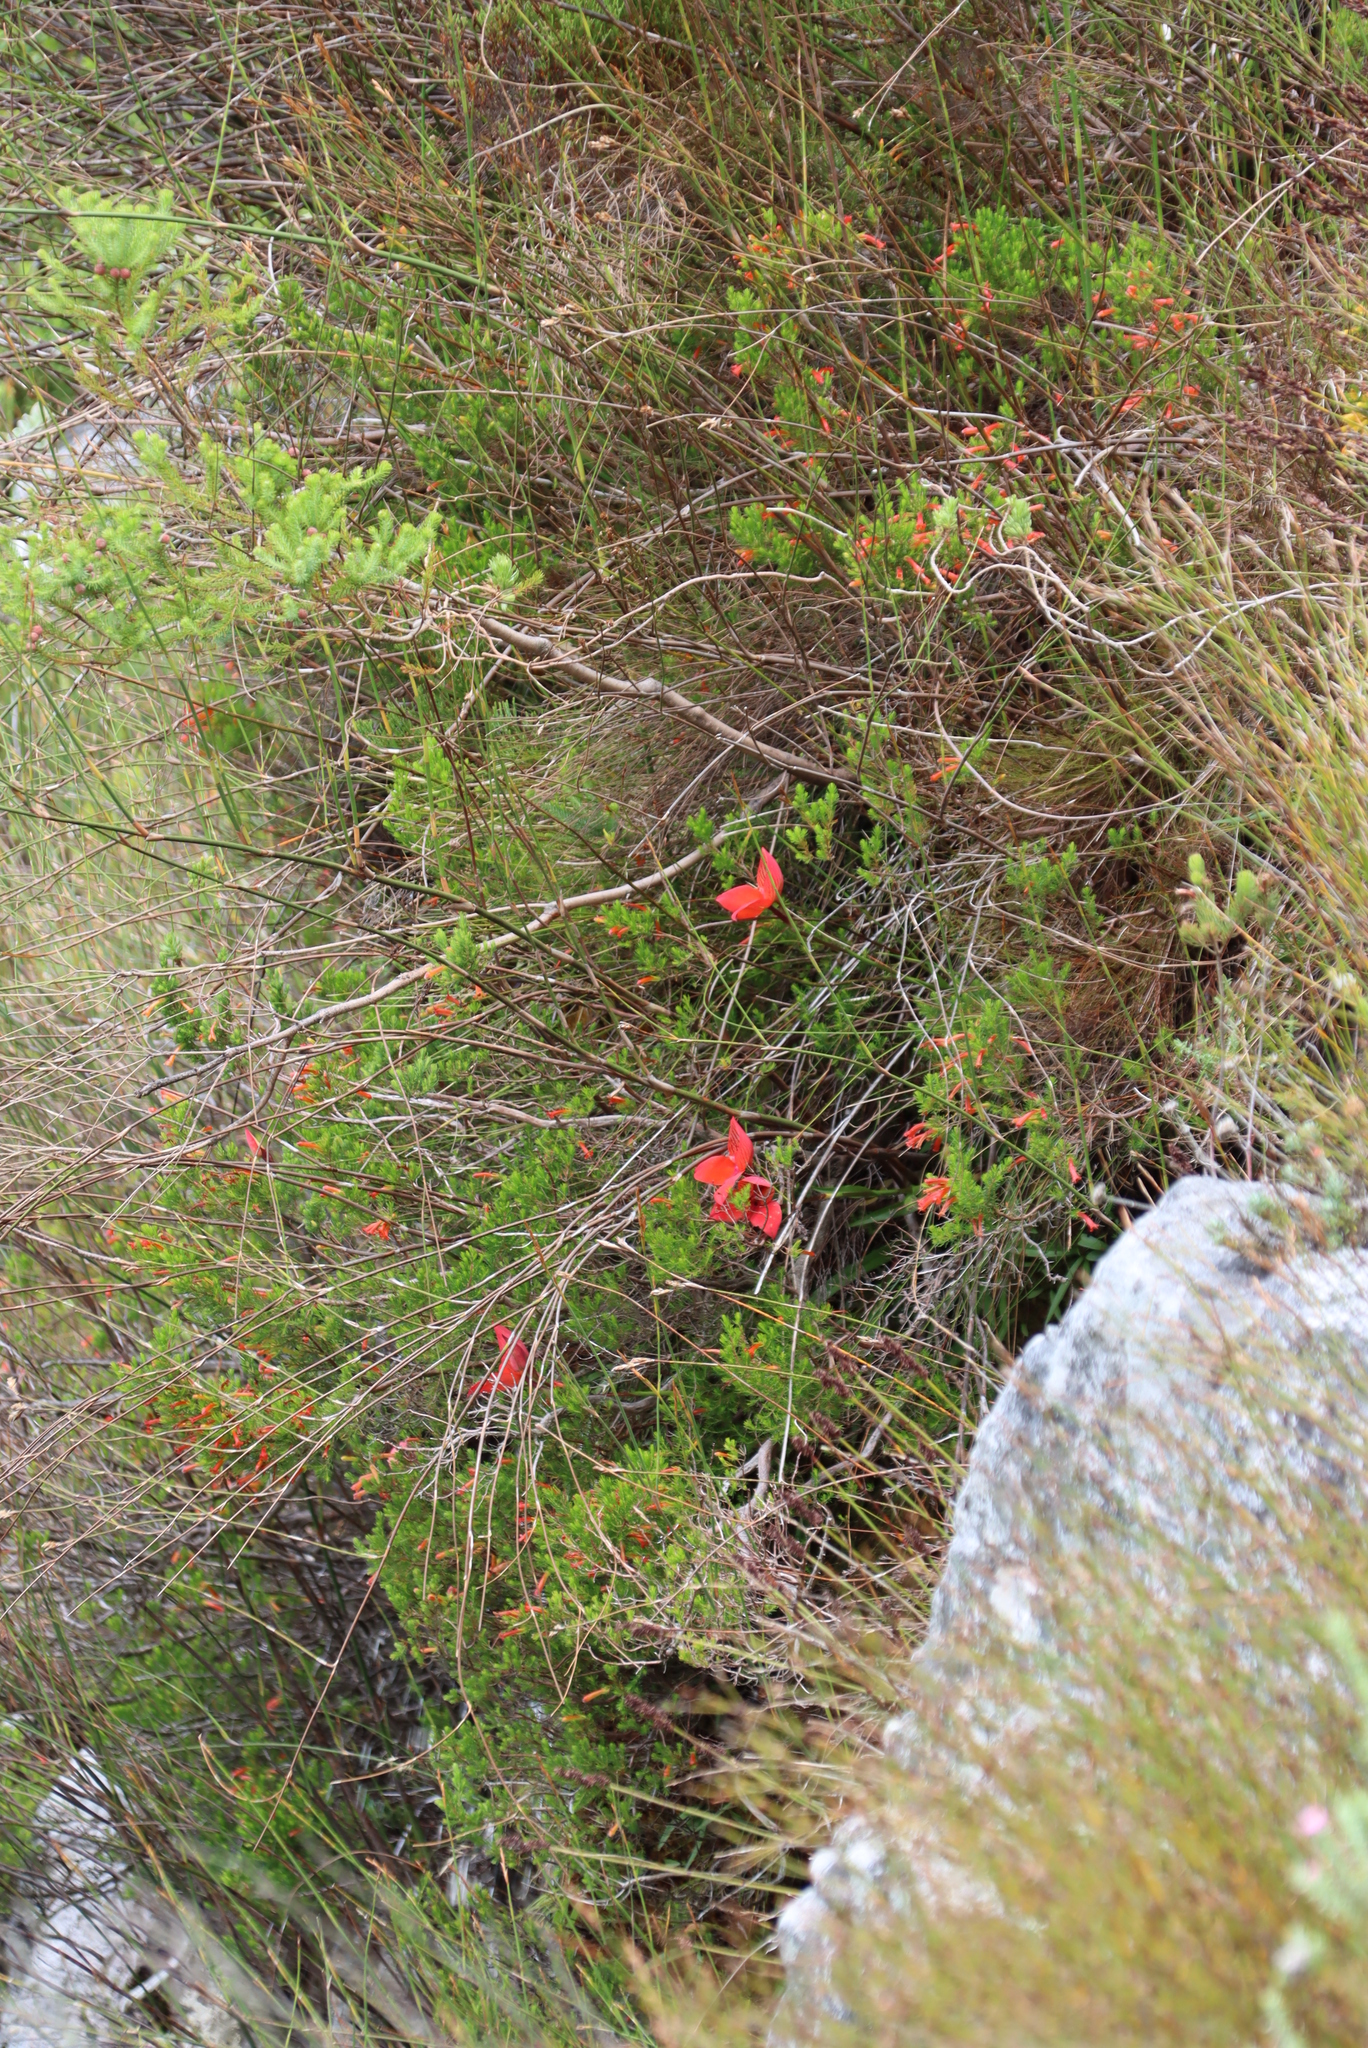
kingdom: Plantae
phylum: Tracheophyta
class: Liliopsida
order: Asparagales
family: Orchidaceae
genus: Disa
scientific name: Disa uniflora
